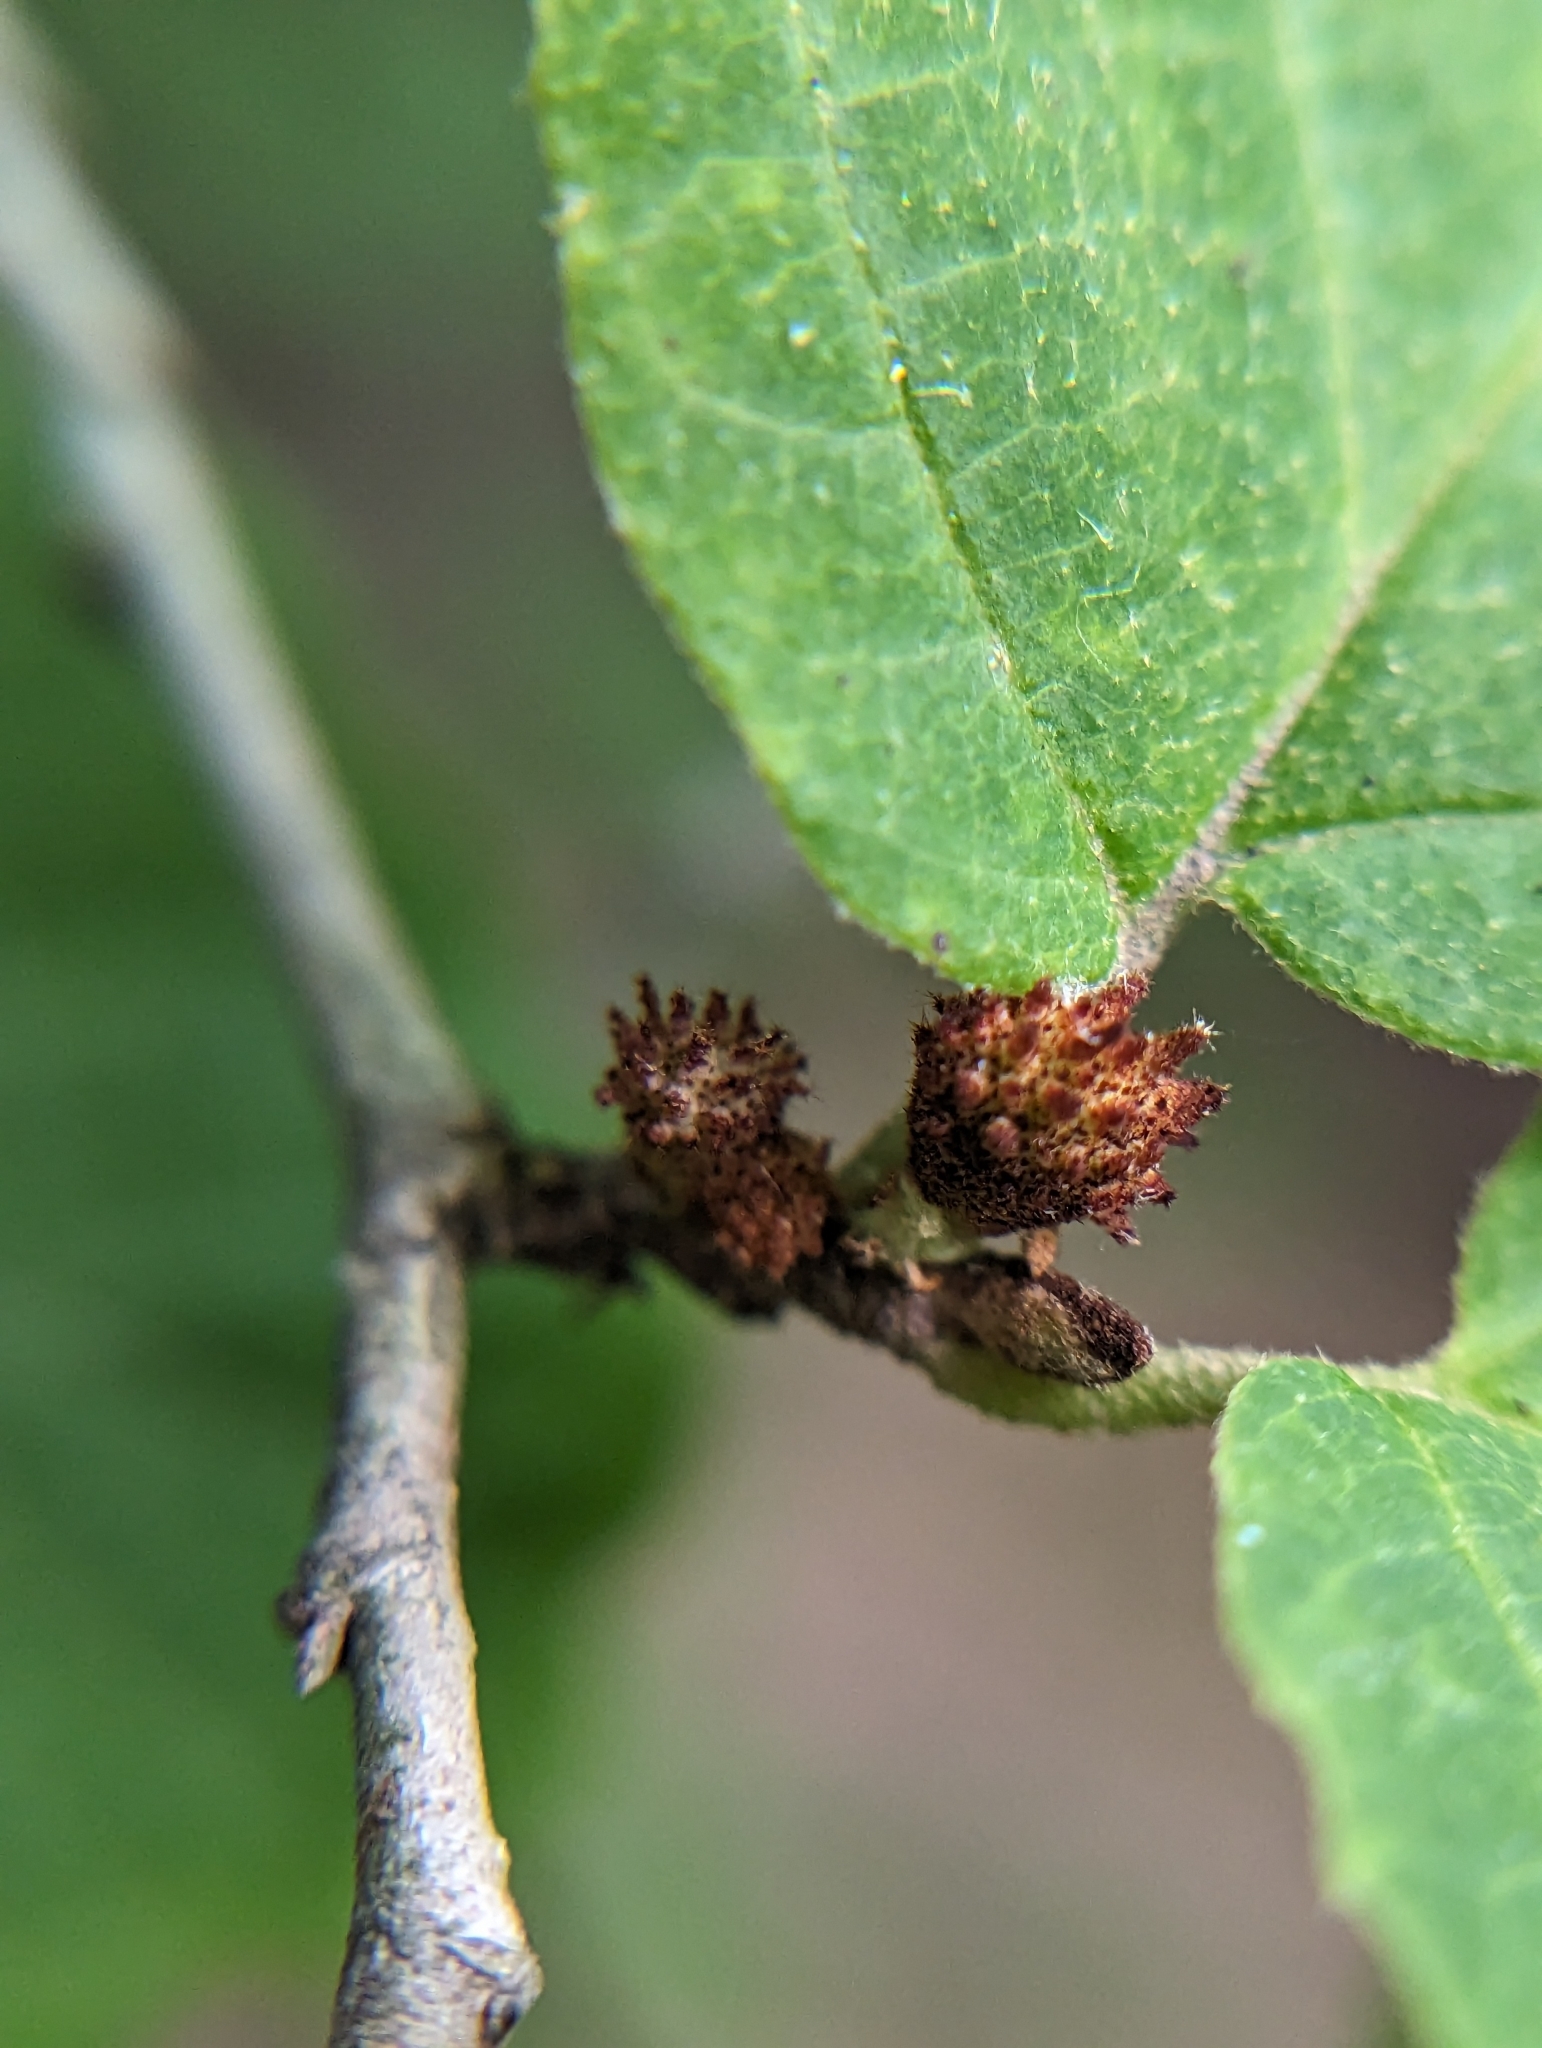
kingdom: Animalia
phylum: Arthropoda
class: Insecta
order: Hemiptera
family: Aphididae
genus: Hamamelistes
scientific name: Hamamelistes spinosus
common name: Witch hazel gall aphid
